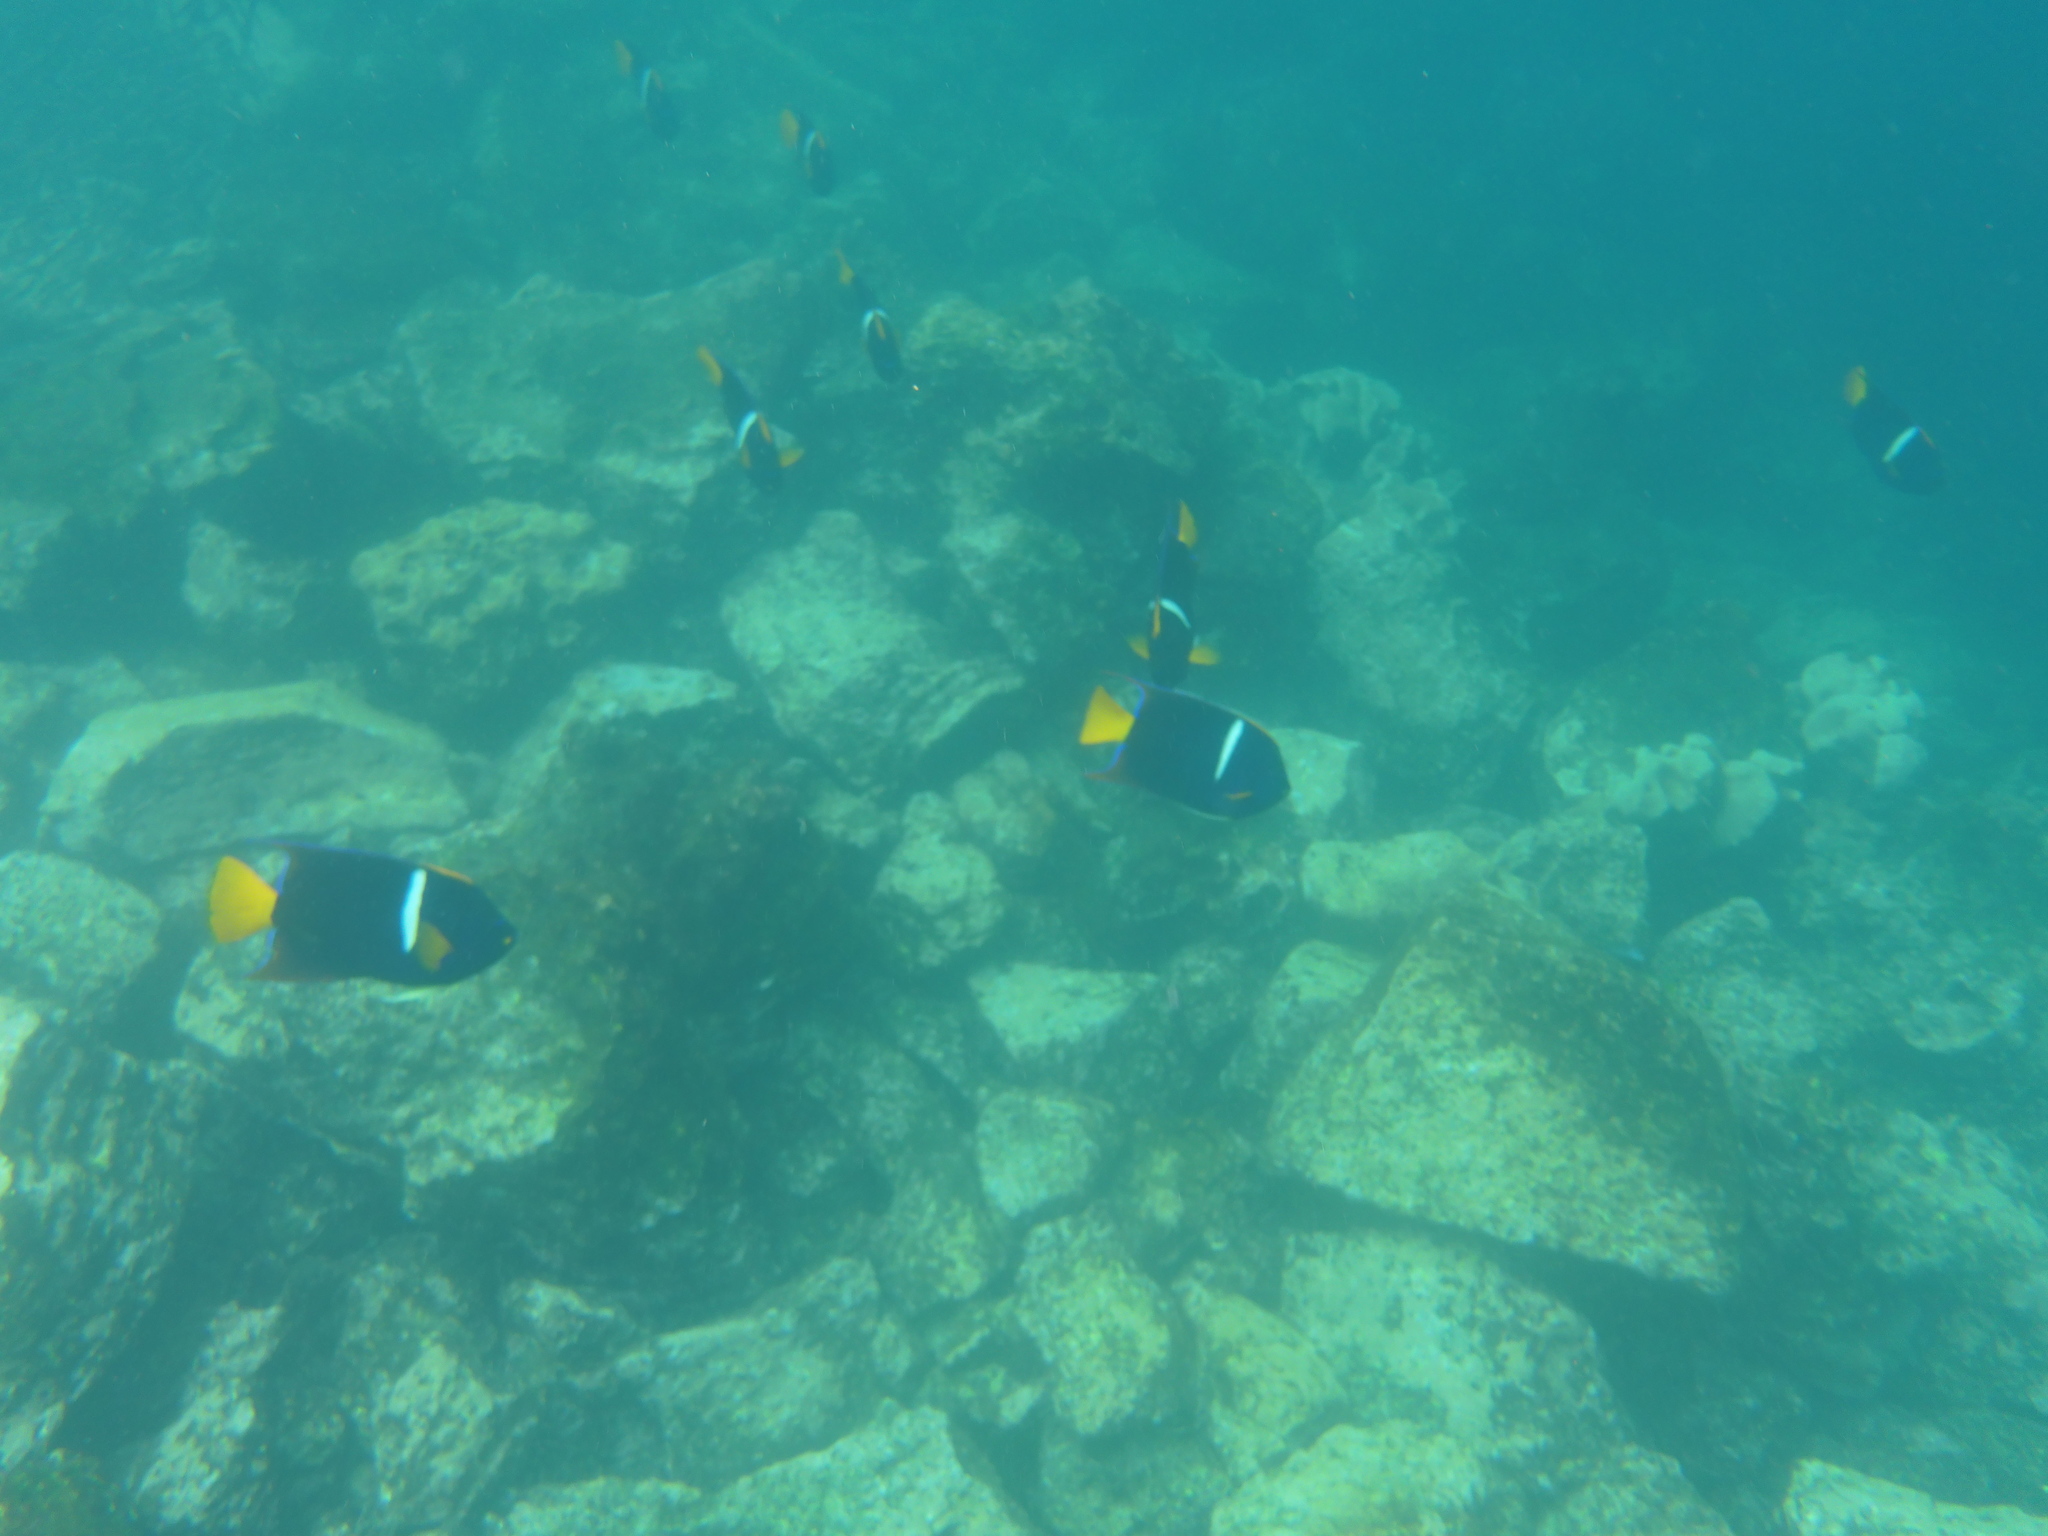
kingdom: Animalia
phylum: Chordata
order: Perciformes
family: Pomacanthidae
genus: Holacanthus
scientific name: Holacanthus passer
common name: King angelfish
